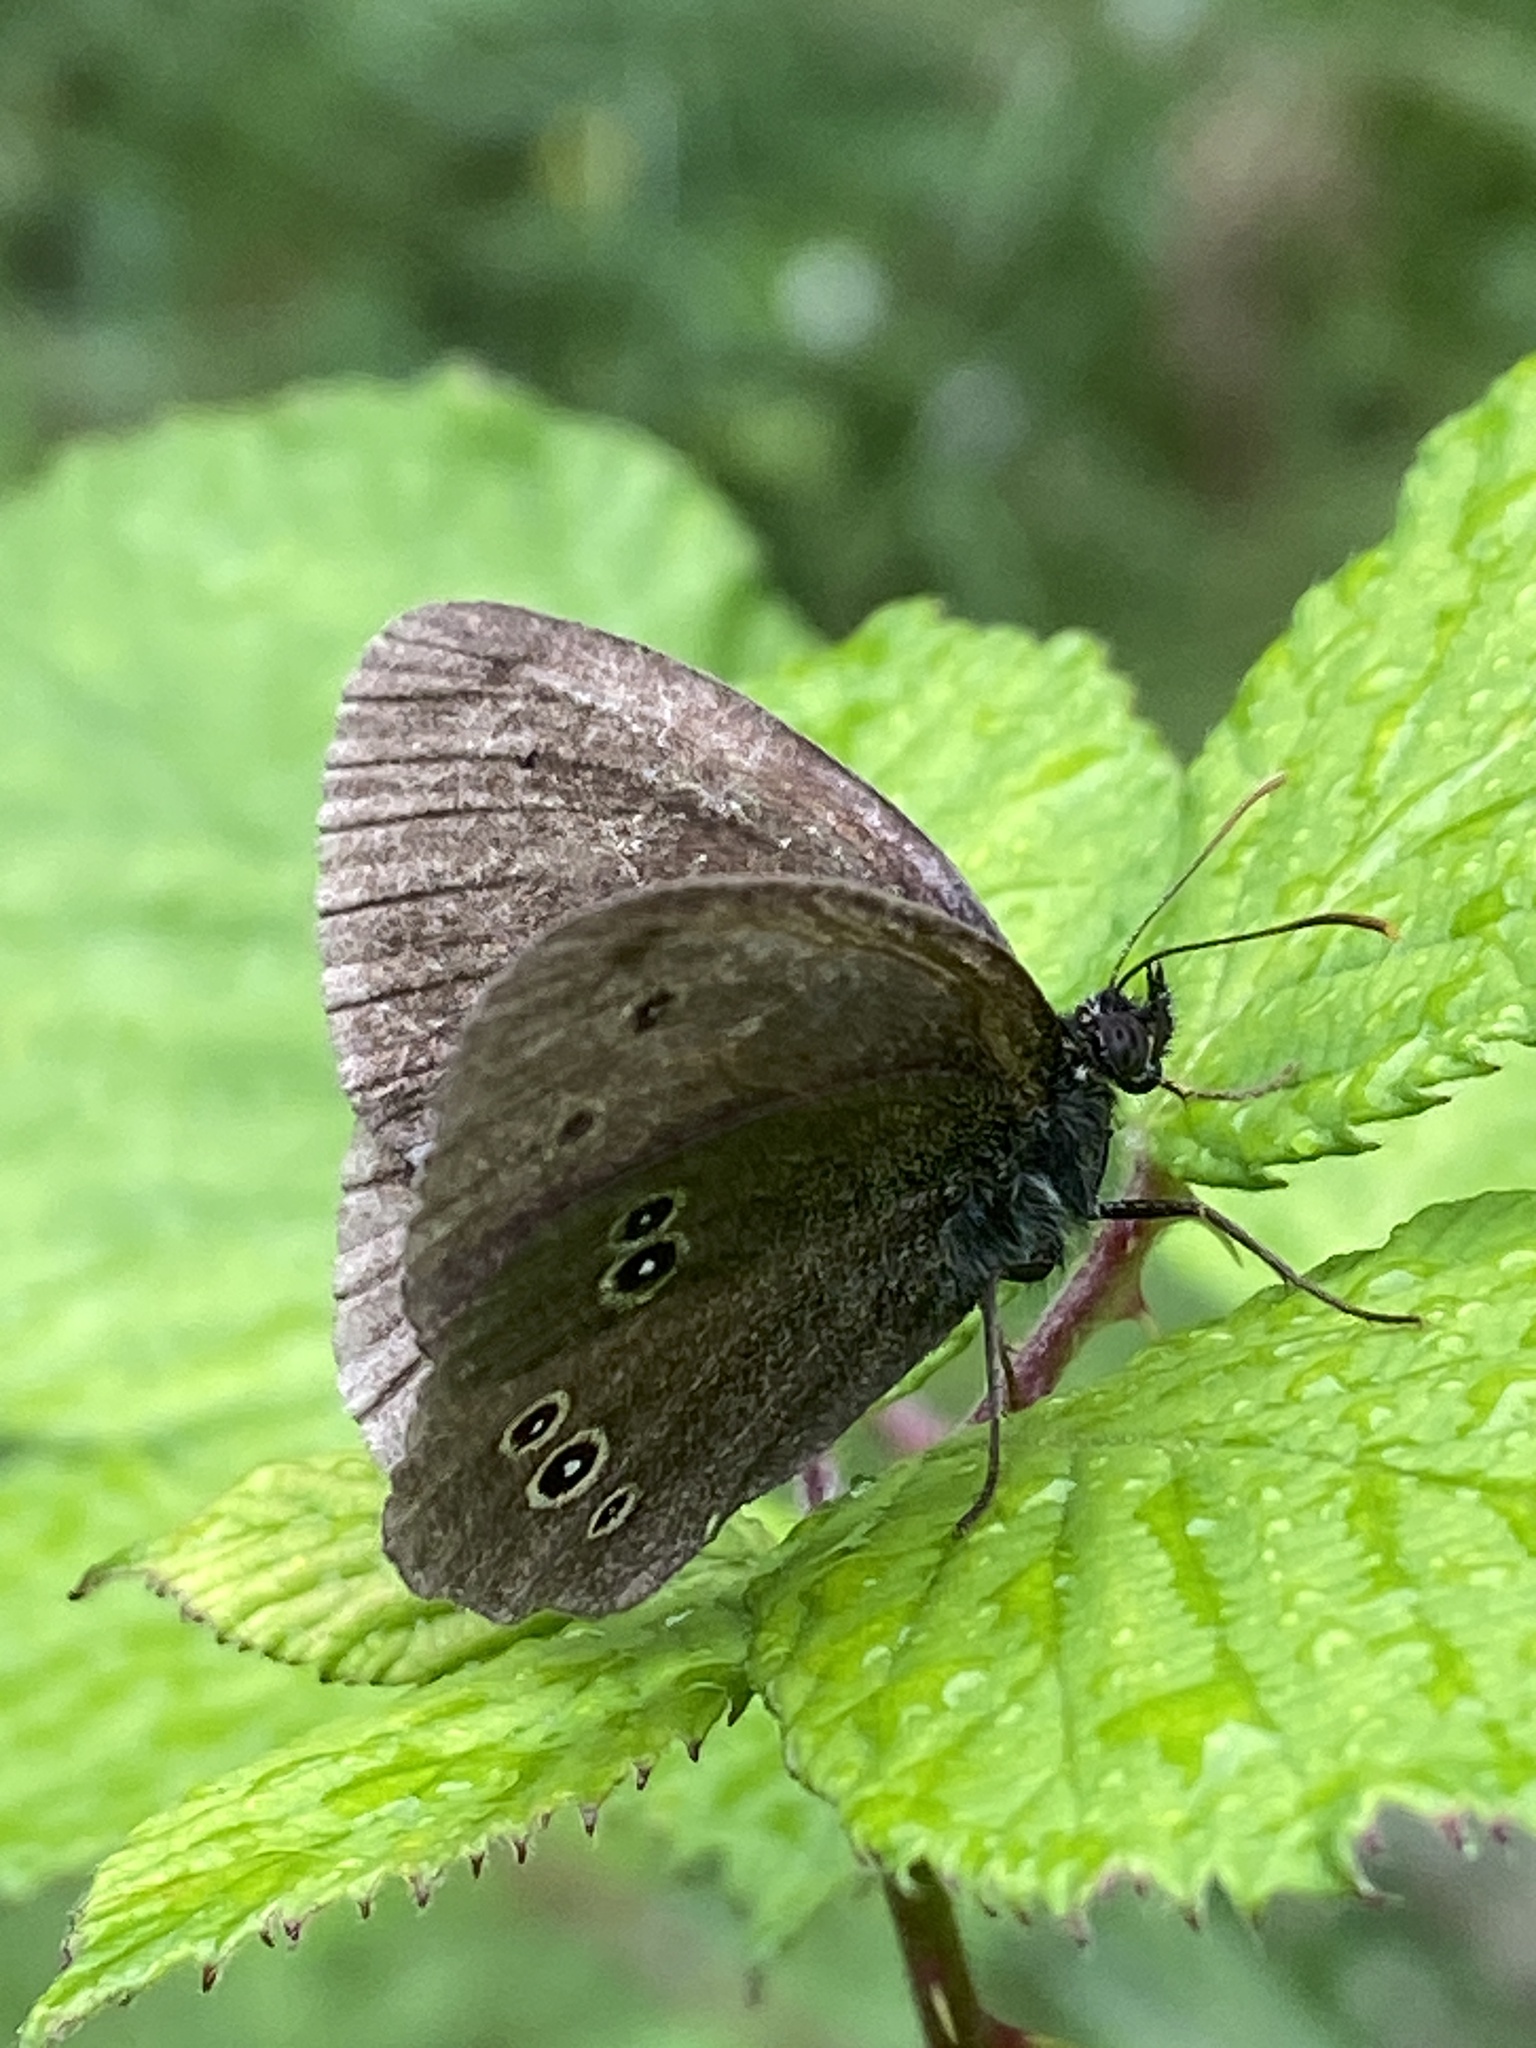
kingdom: Animalia
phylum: Arthropoda
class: Insecta
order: Lepidoptera
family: Nymphalidae
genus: Aphantopus
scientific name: Aphantopus hyperantus
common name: Ringlet
